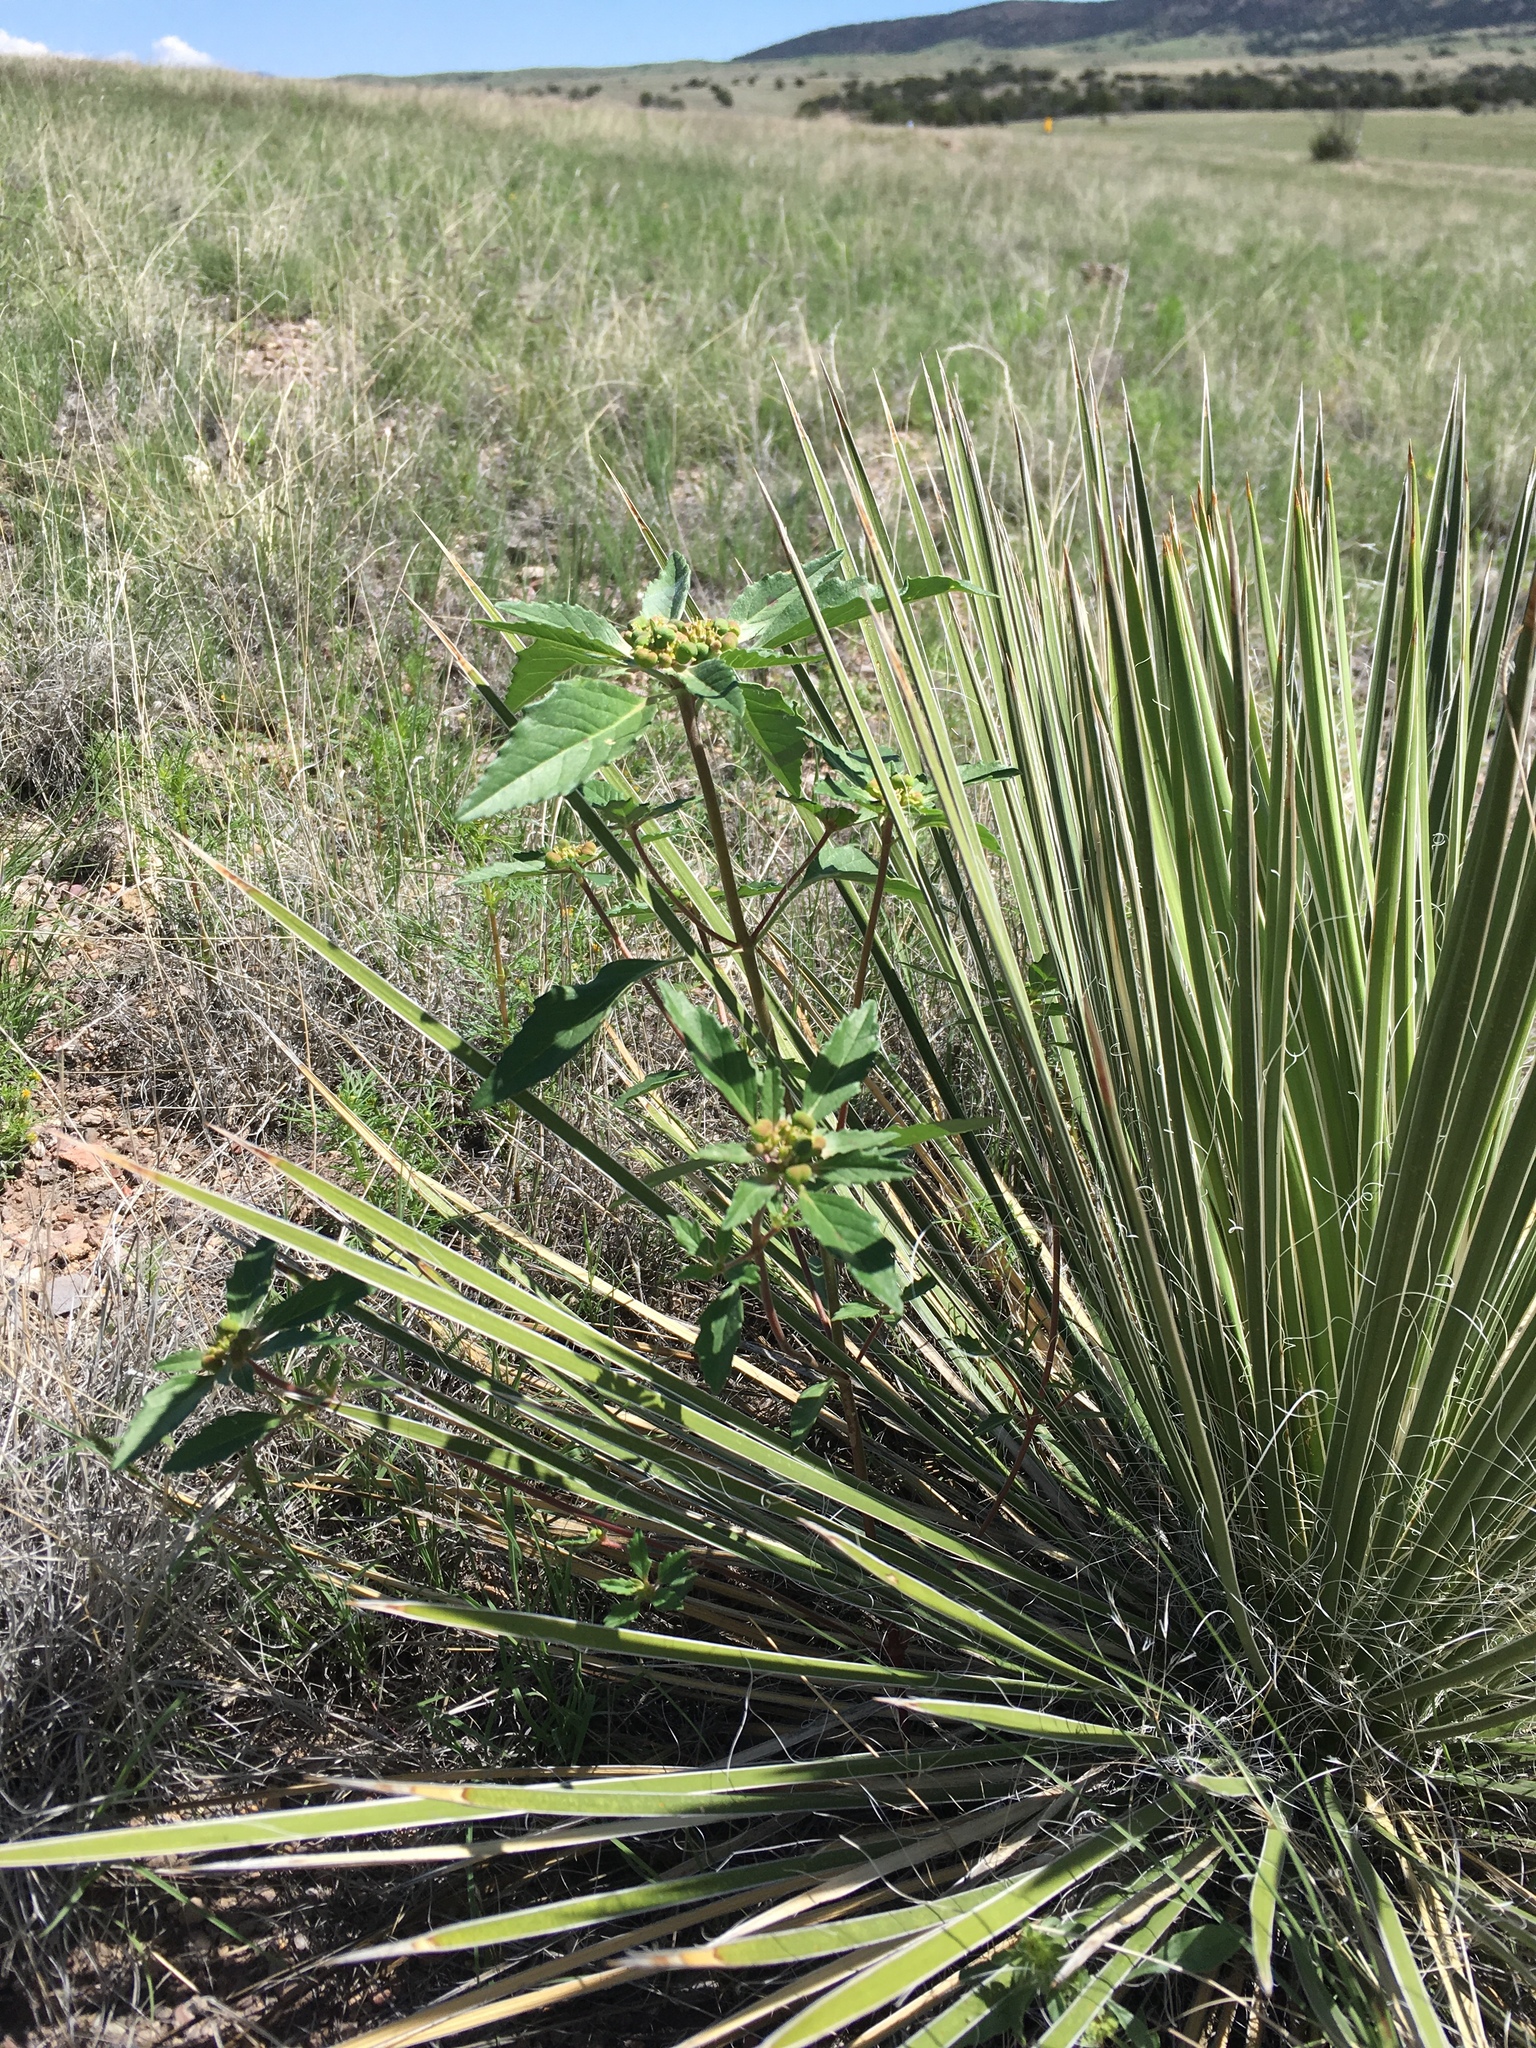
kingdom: Plantae
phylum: Tracheophyta
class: Magnoliopsida
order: Malpighiales
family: Euphorbiaceae
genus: Euphorbia
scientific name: Euphorbia davidii
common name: David's spurge
